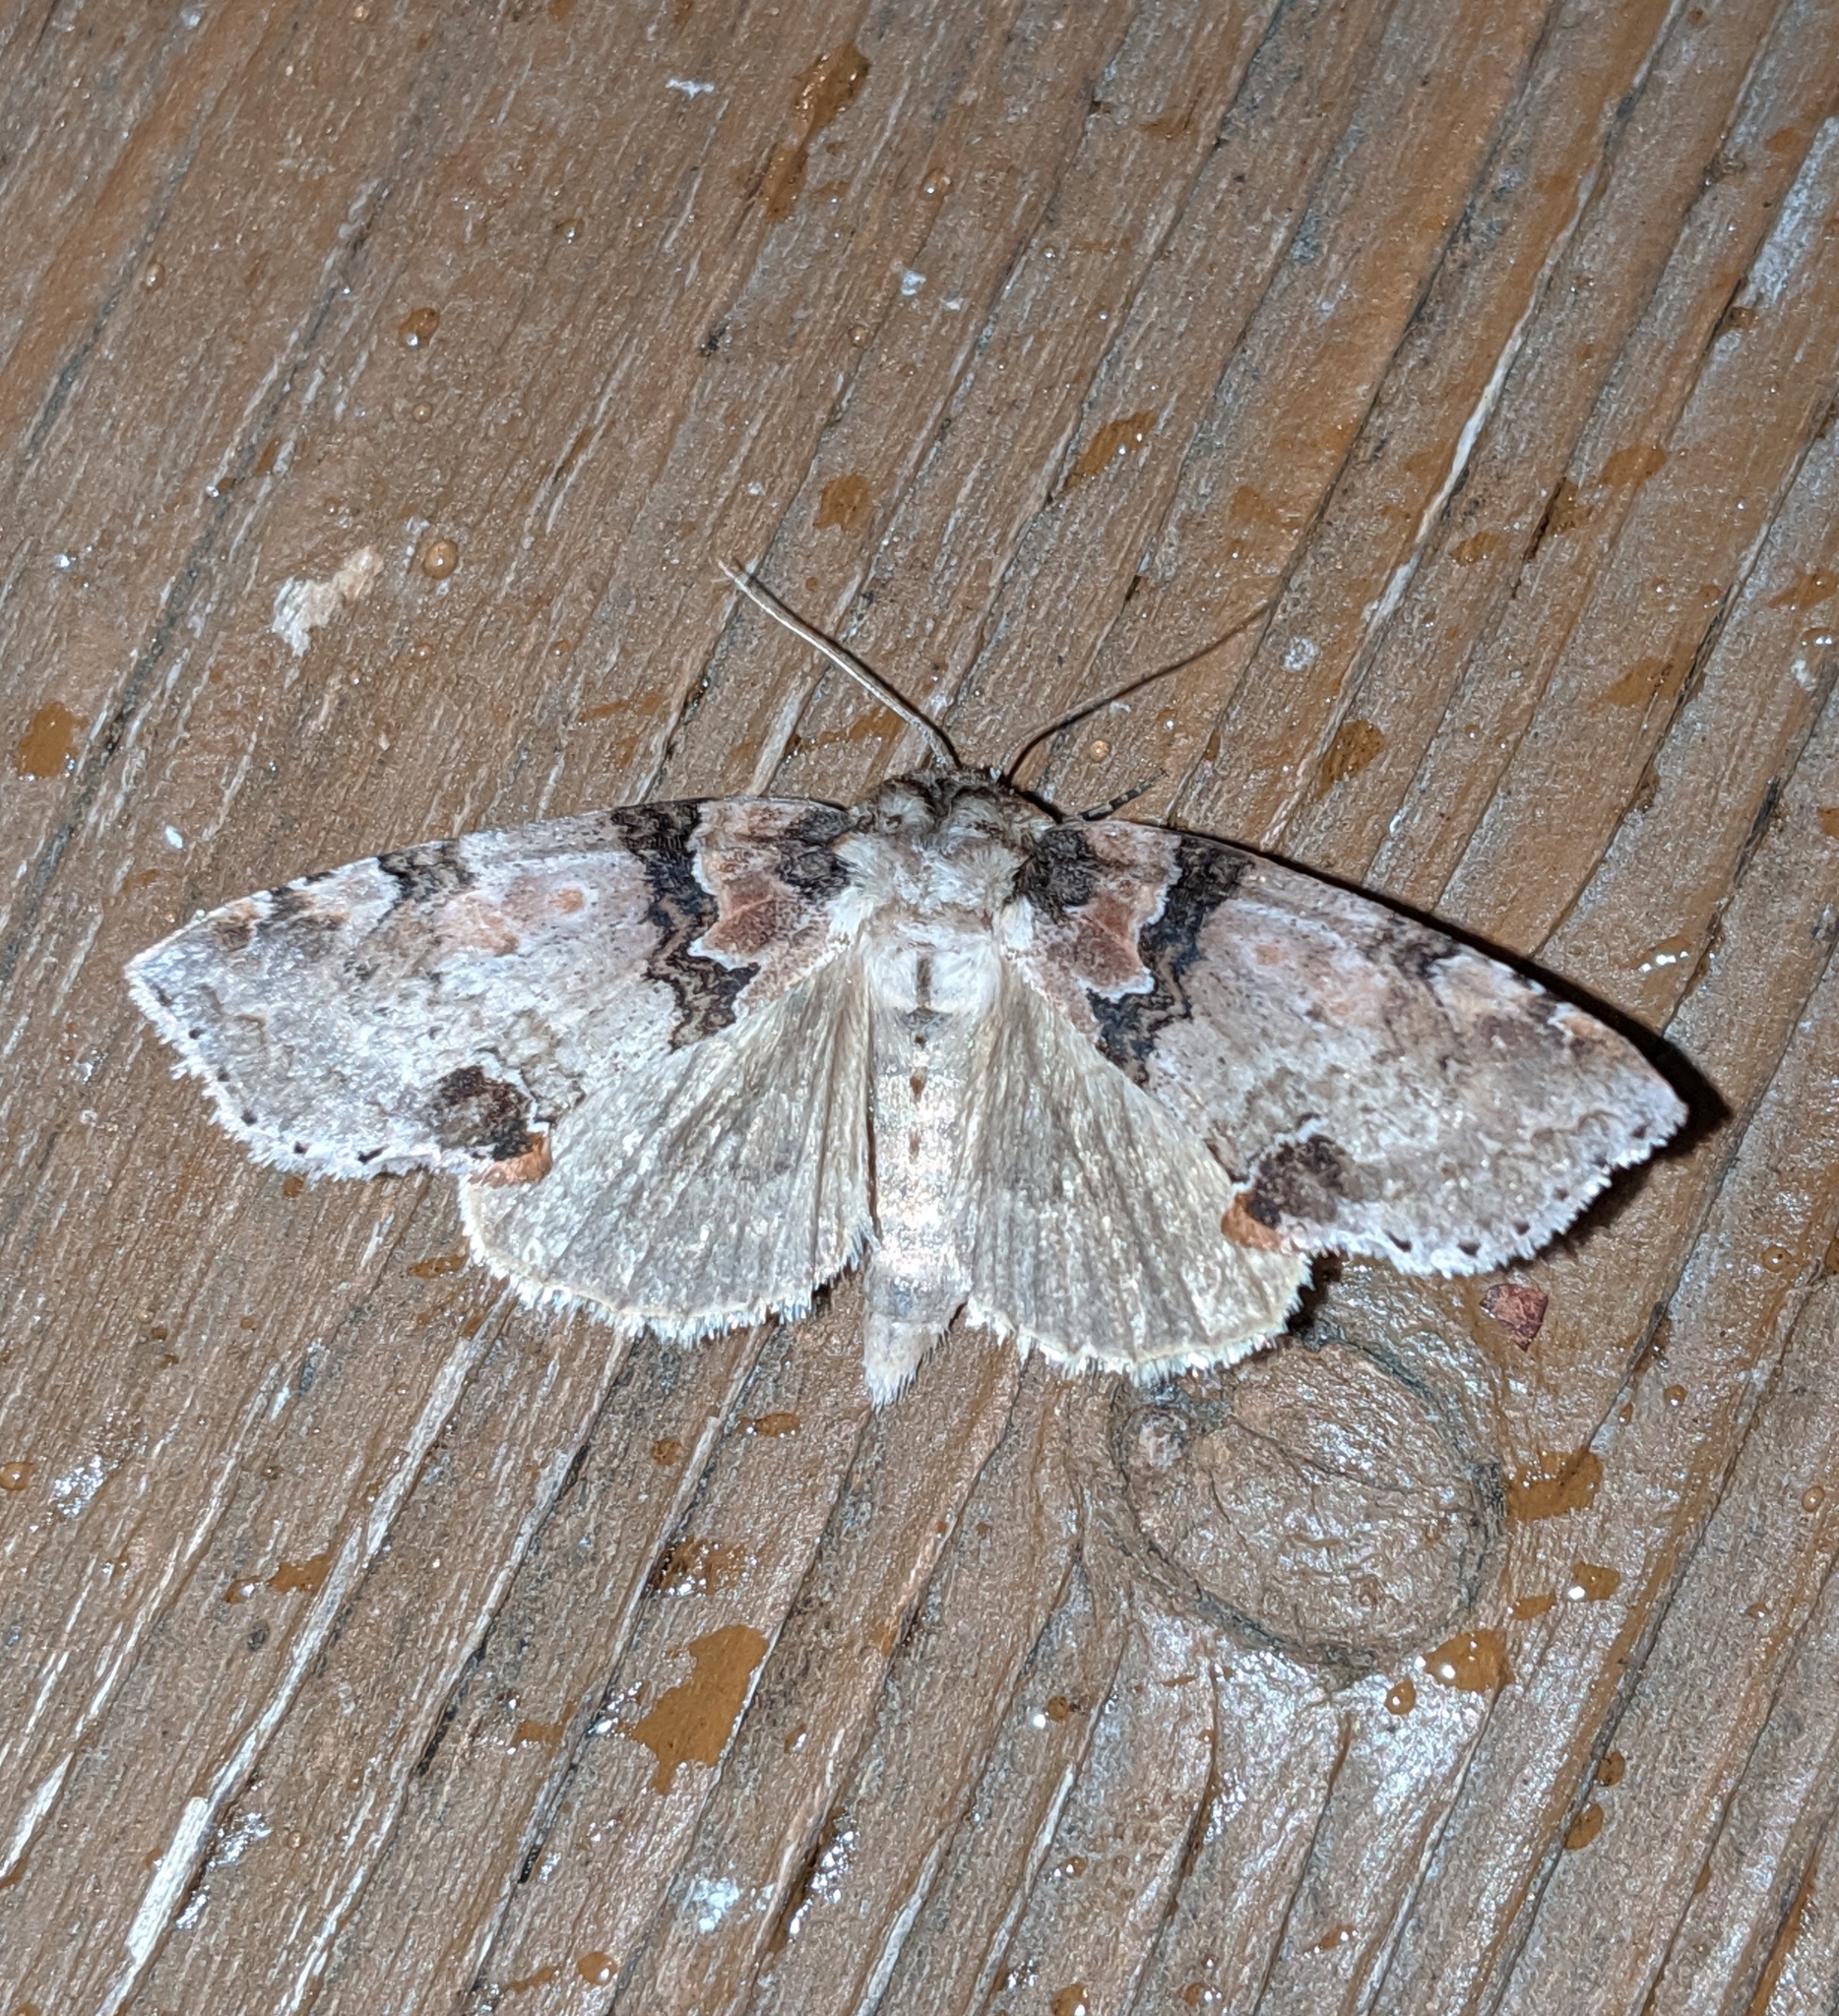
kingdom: Animalia
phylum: Arthropoda
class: Insecta
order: Lepidoptera
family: Drepanidae
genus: Pseudothyatira
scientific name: Pseudothyatira cymatophoroides
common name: Tufted thyatirid moth
